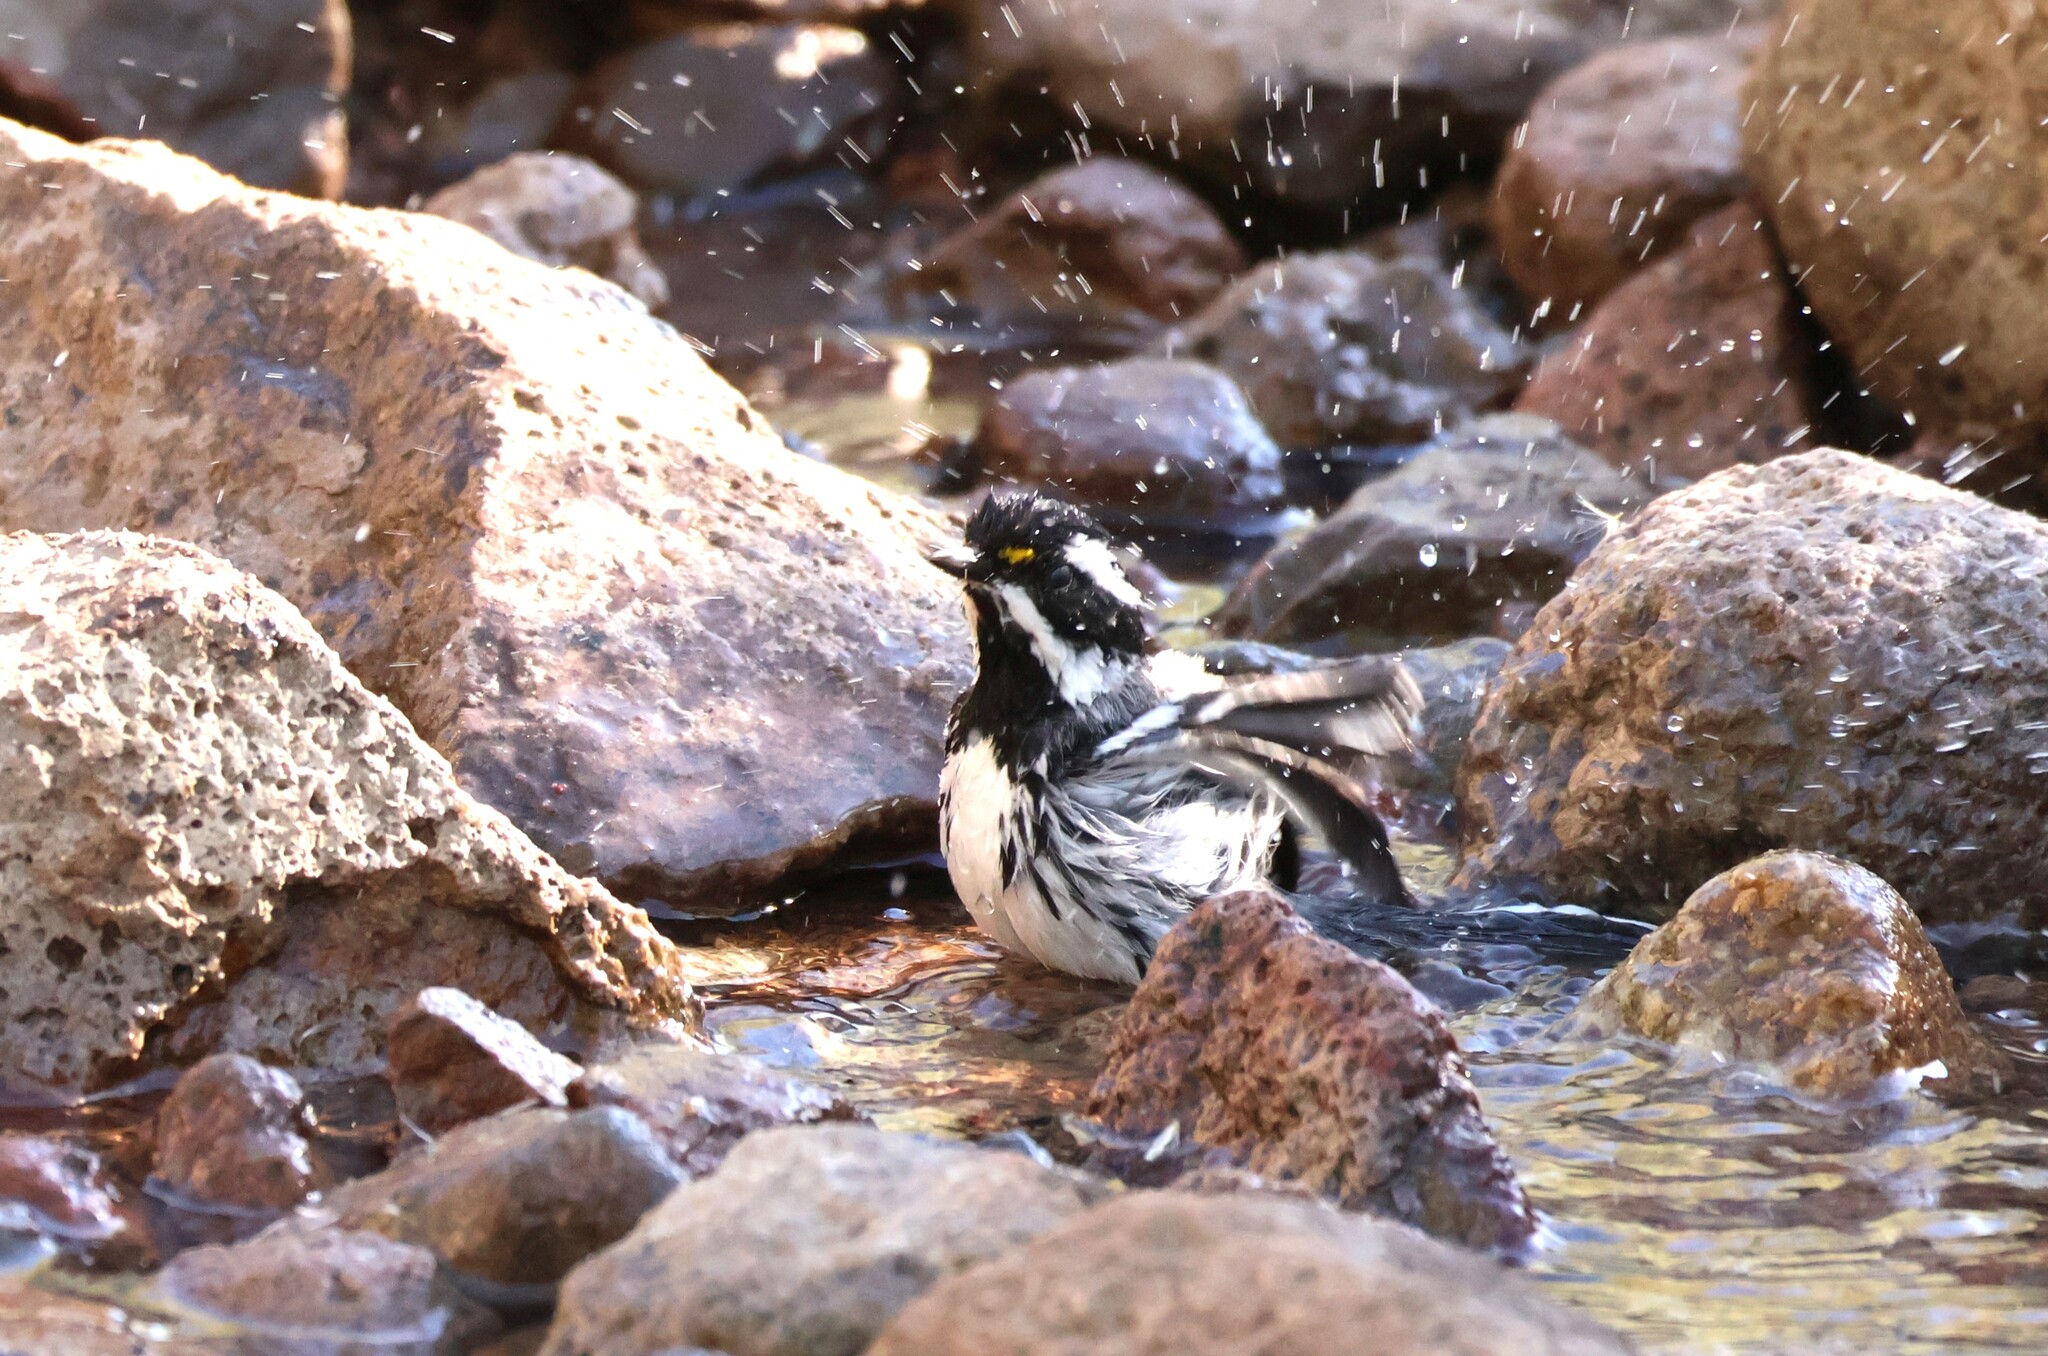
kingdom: Animalia
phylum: Chordata
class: Aves
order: Passeriformes
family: Parulidae
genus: Setophaga
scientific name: Setophaga nigrescens
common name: Black-throated gray warbler
